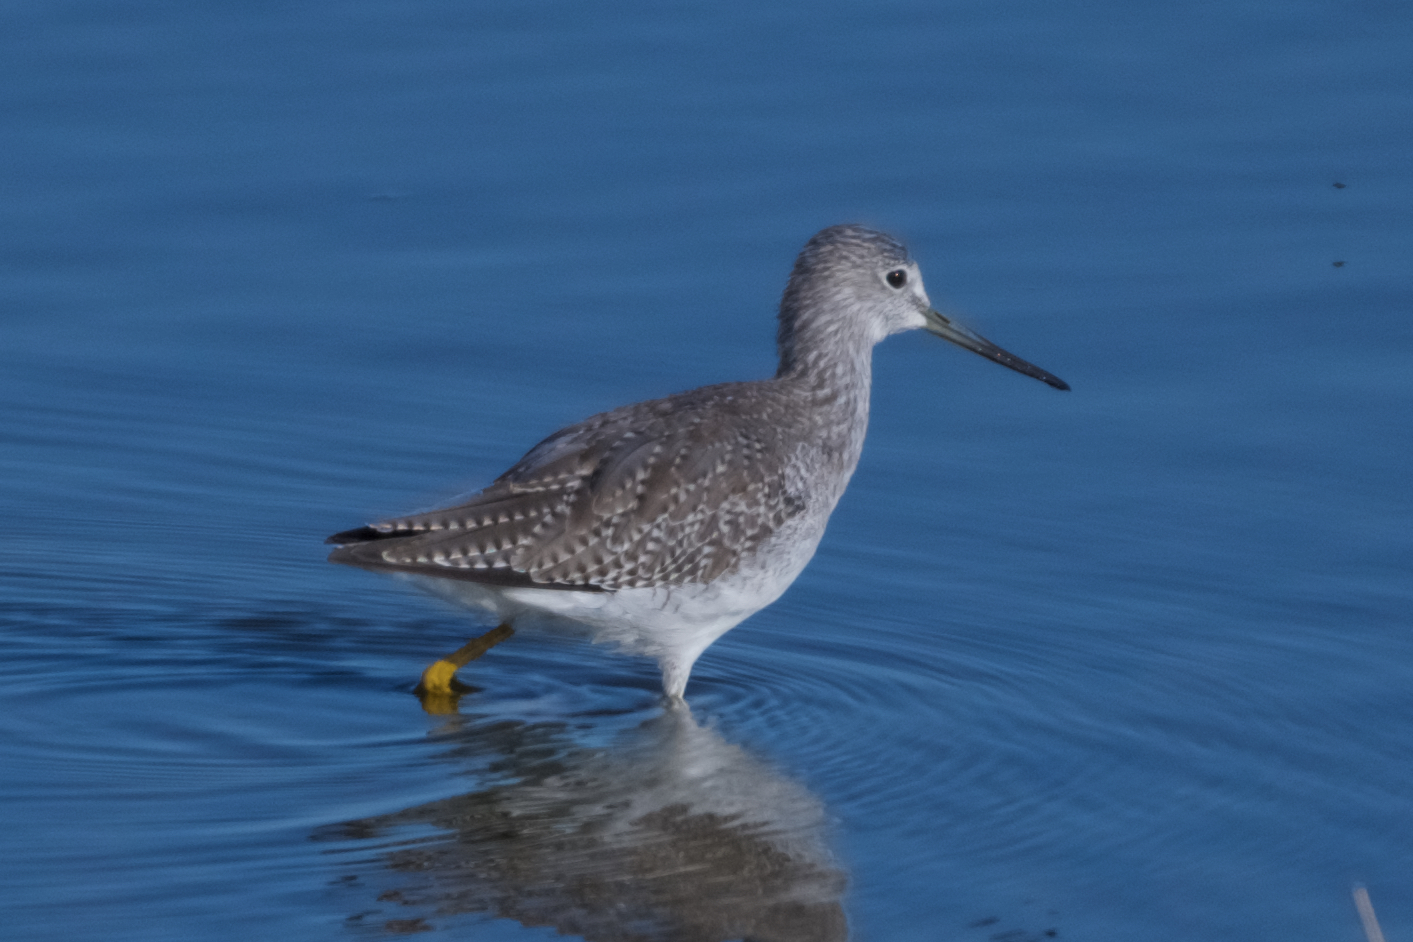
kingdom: Animalia
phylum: Chordata
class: Aves
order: Charadriiformes
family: Scolopacidae
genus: Tringa
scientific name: Tringa melanoleuca
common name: Greater yellowlegs
